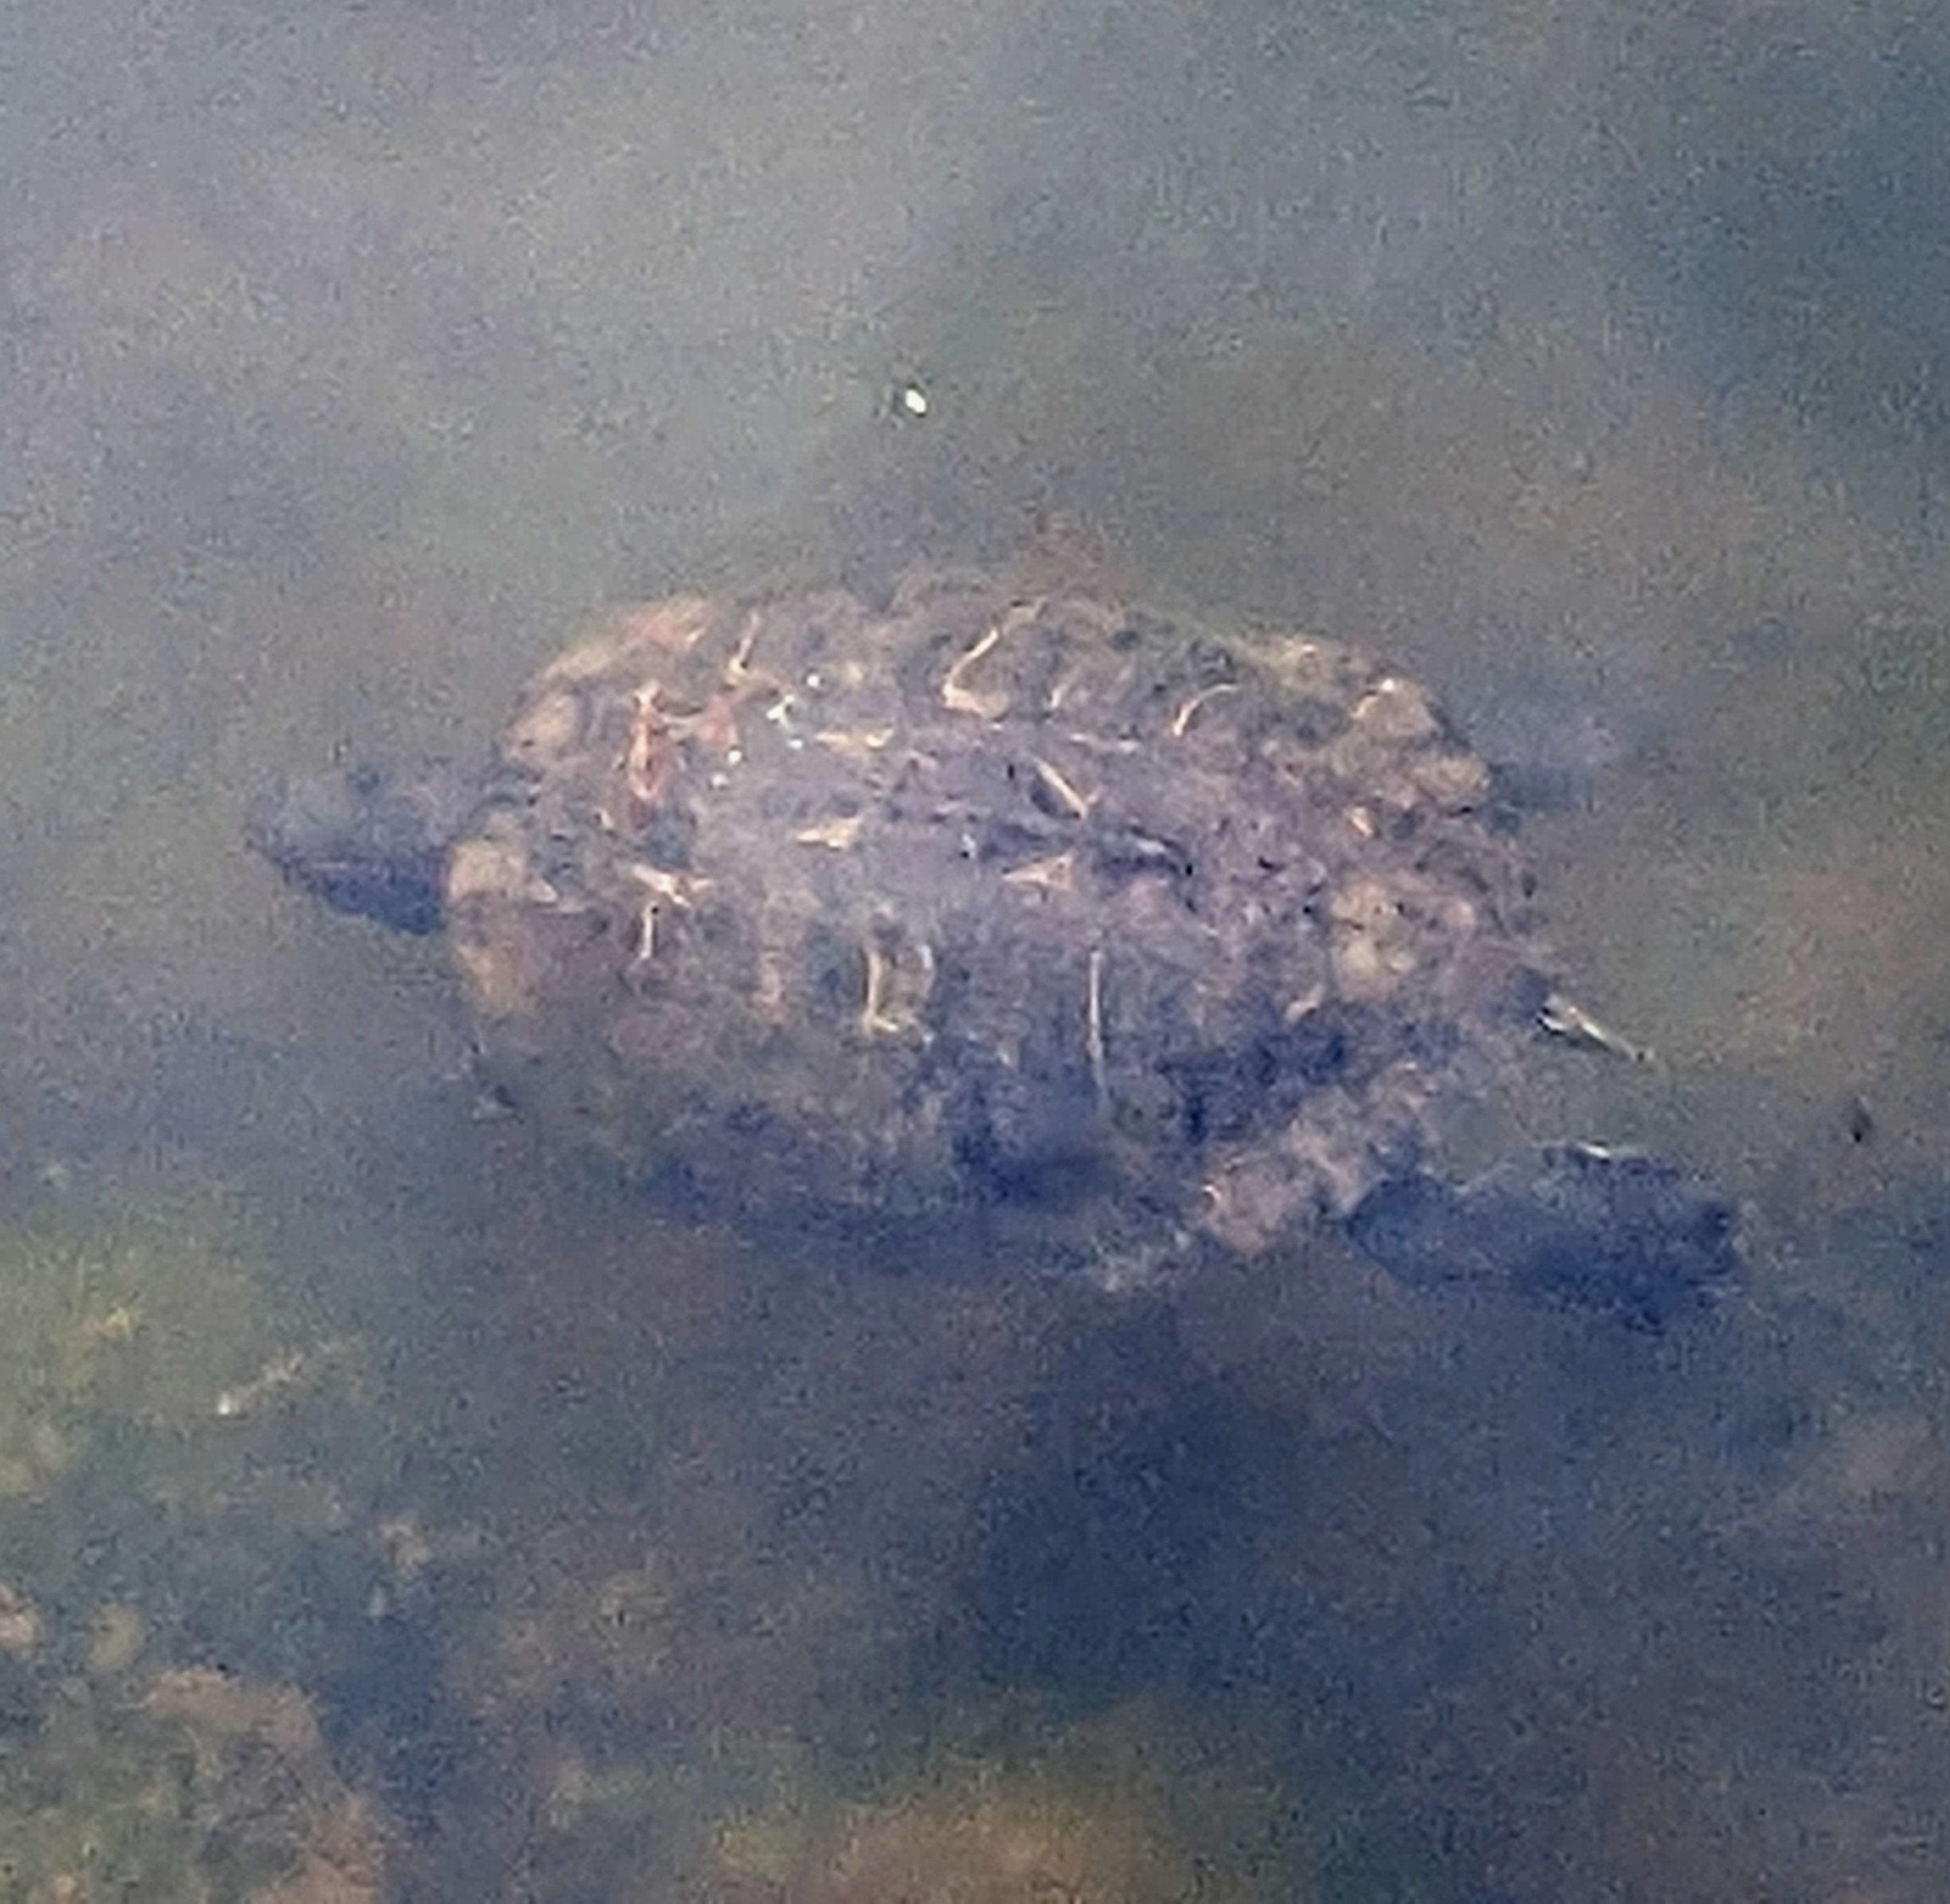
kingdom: Animalia
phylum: Chordata
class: Testudines
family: Emydidae
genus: Trachemys
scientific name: Trachemys scripta
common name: Slider
